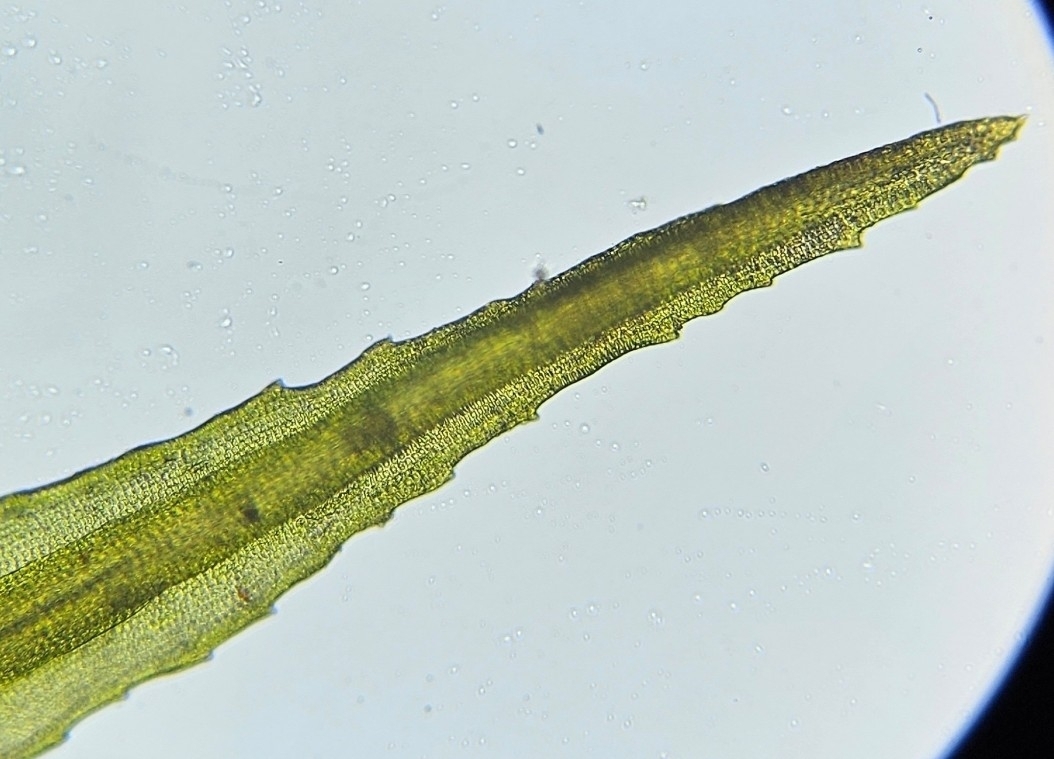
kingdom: Plantae
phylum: Bryophyta
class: Bryopsida
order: Grimmiales
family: Ptychomitriaceae
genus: Ptychomitrium
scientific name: Ptychomitrium polyphyllum
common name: Greater pincushion
